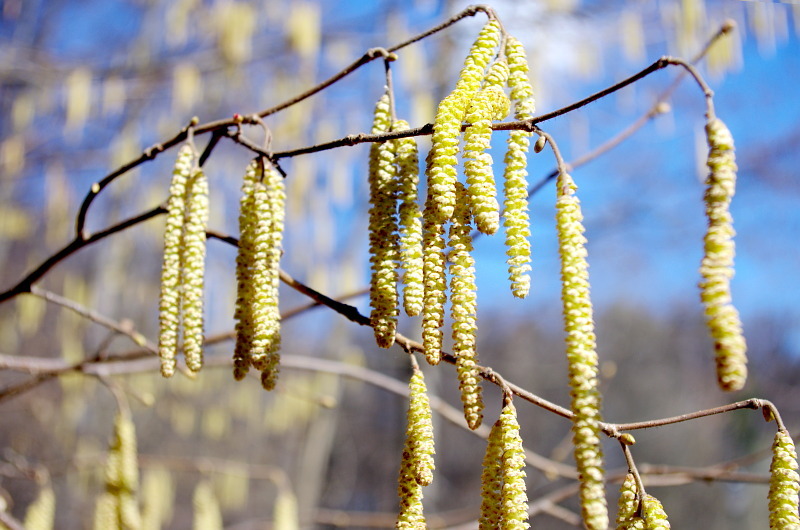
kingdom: Plantae
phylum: Tracheophyta
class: Magnoliopsida
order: Fagales
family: Betulaceae
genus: Corylus
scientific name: Corylus avellana
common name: European hazel
